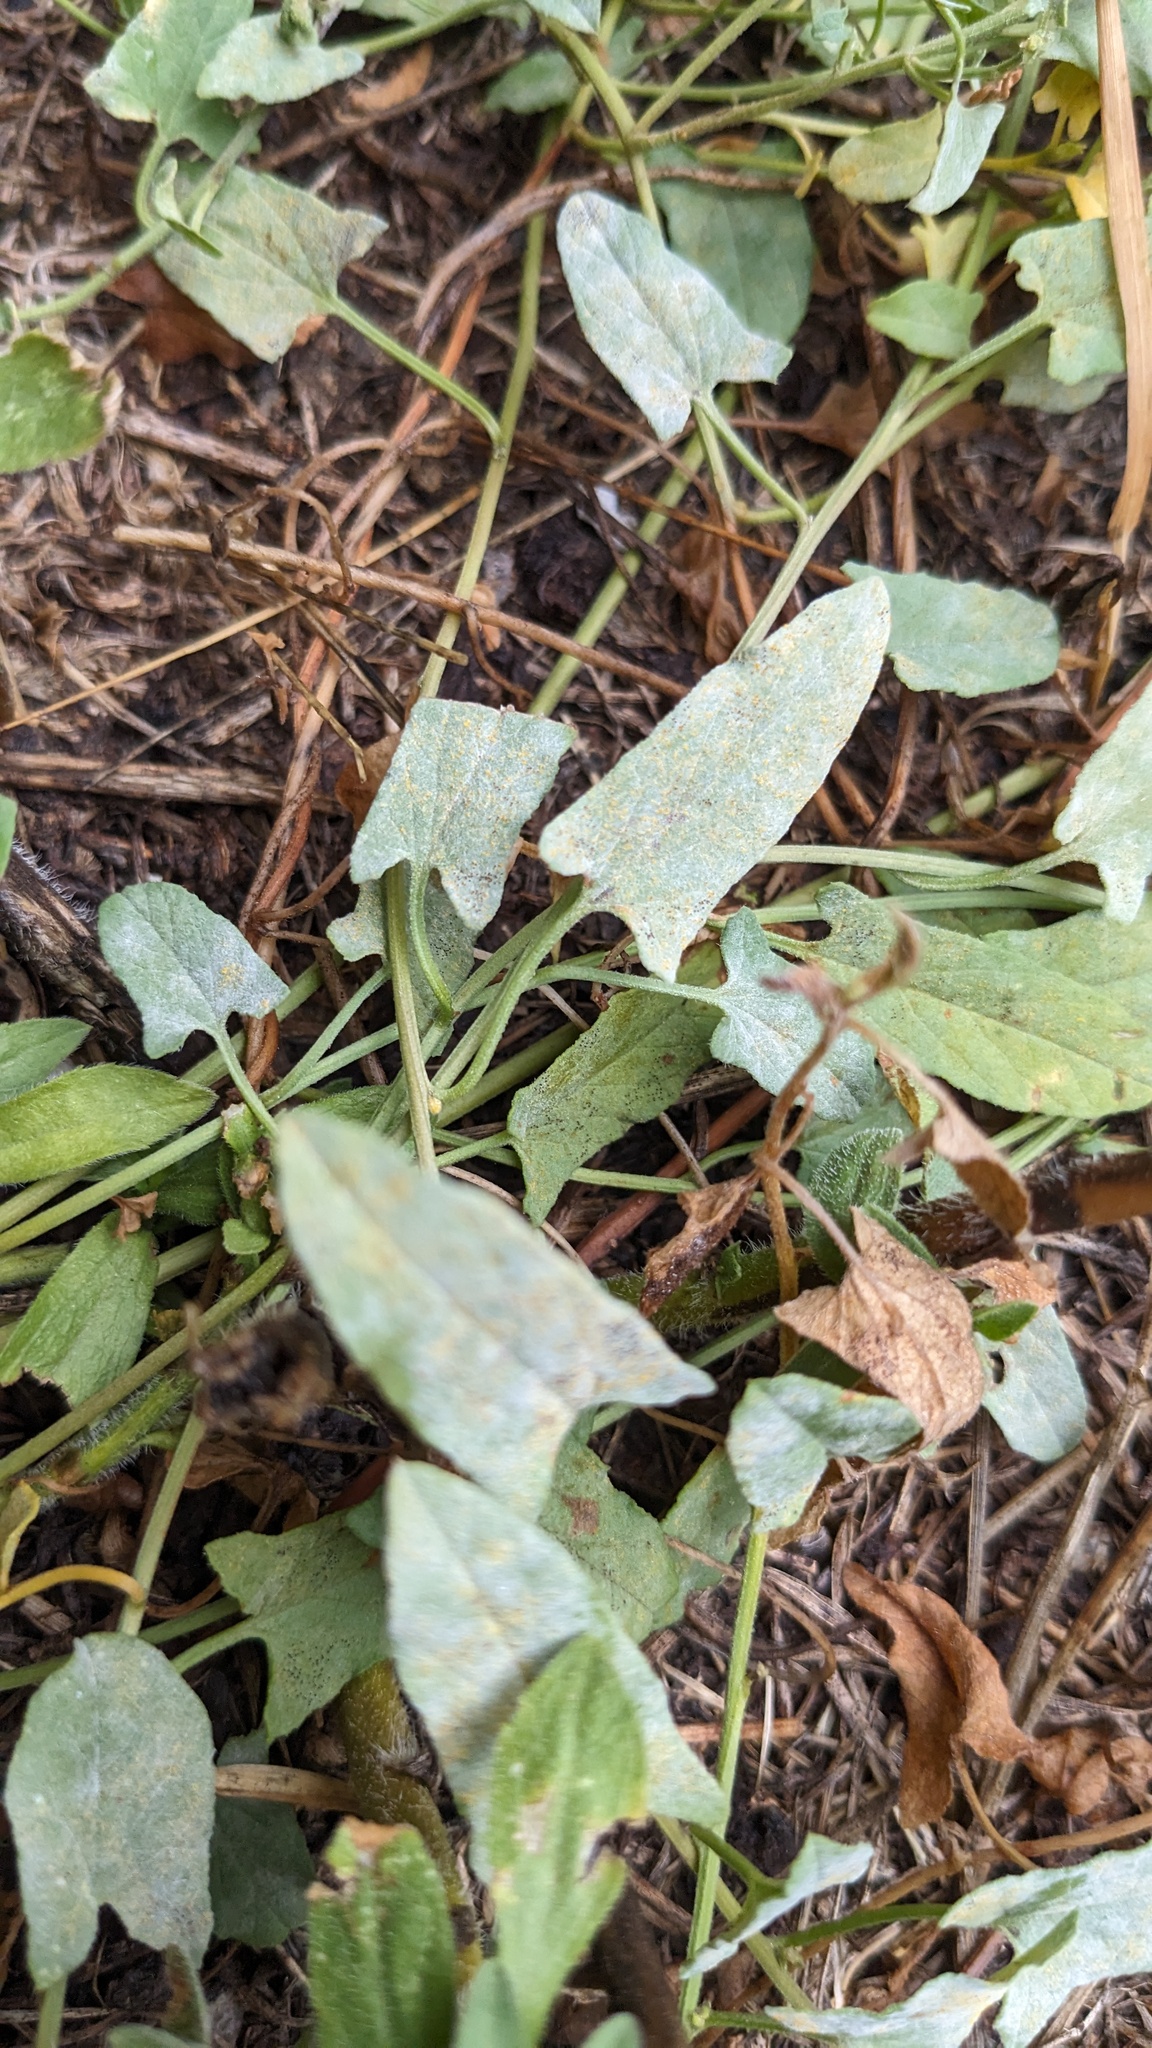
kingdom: Fungi
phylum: Ascomycota
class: Leotiomycetes
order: Helotiales
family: Erysiphaceae
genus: Erysiphe
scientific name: Erysiphe convolvuli
